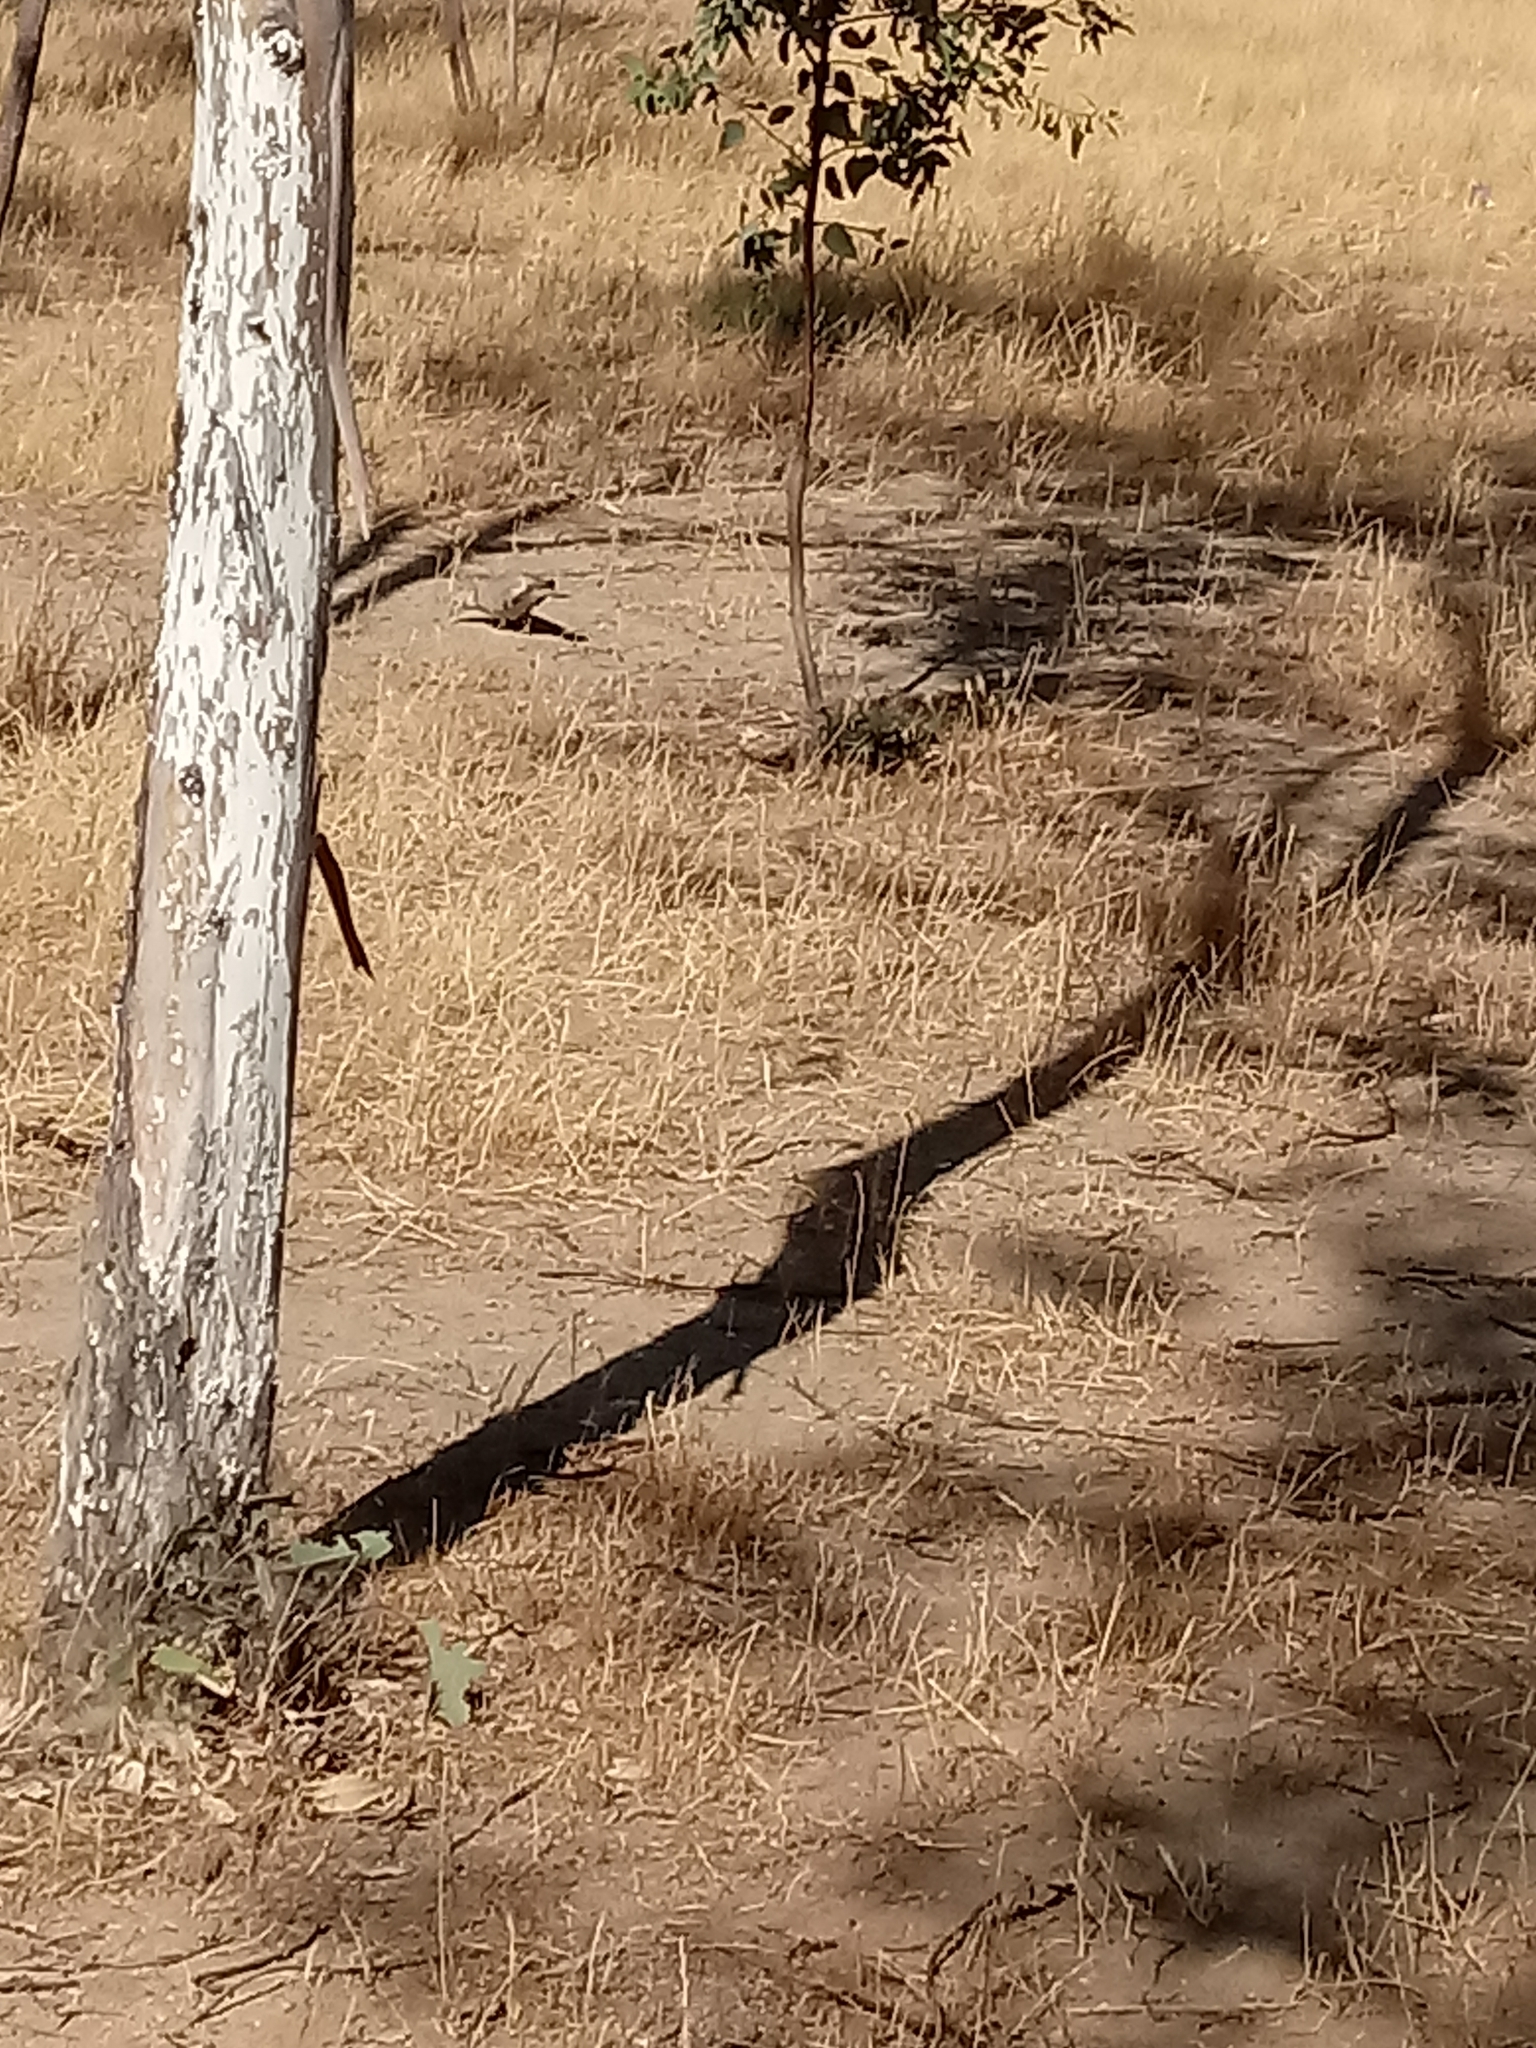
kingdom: Animalia
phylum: Chordata
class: Aves
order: Columbiformes
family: Columbidae
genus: Streptopelia
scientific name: Streptopelia decaocto
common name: Eurasian collared dove
